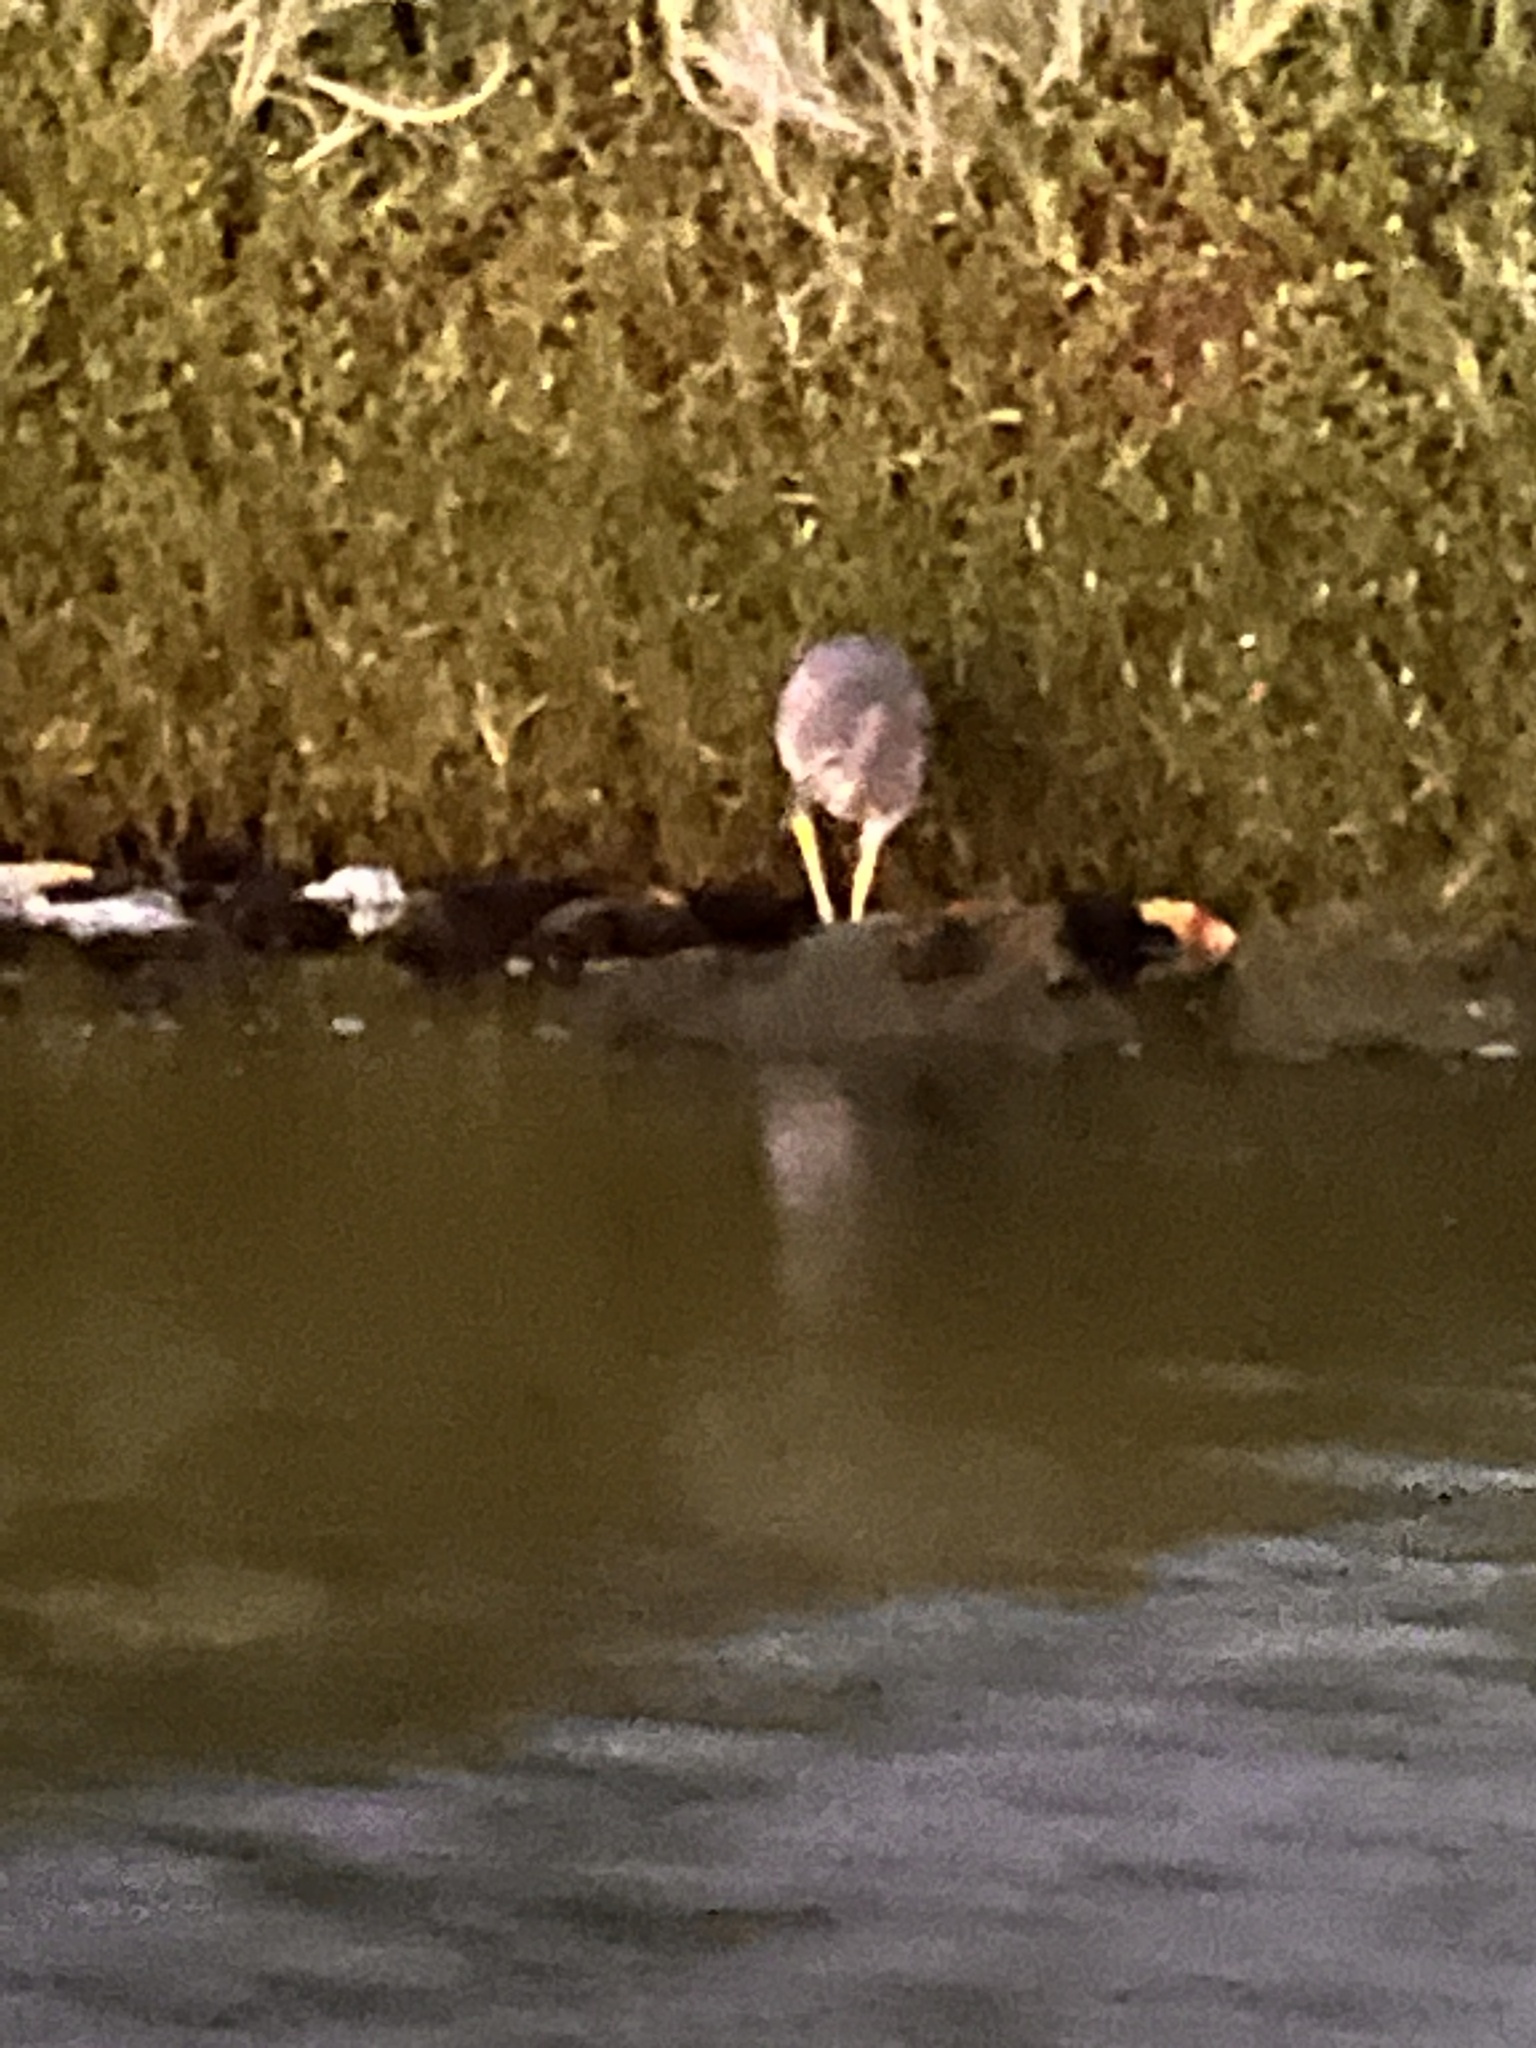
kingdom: Animalia
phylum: Chordata
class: Aves
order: Pelecaniformes
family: Ardeidae
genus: Nycticorax
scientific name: Nycticorax nycticorax
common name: Black-crowned night heron
